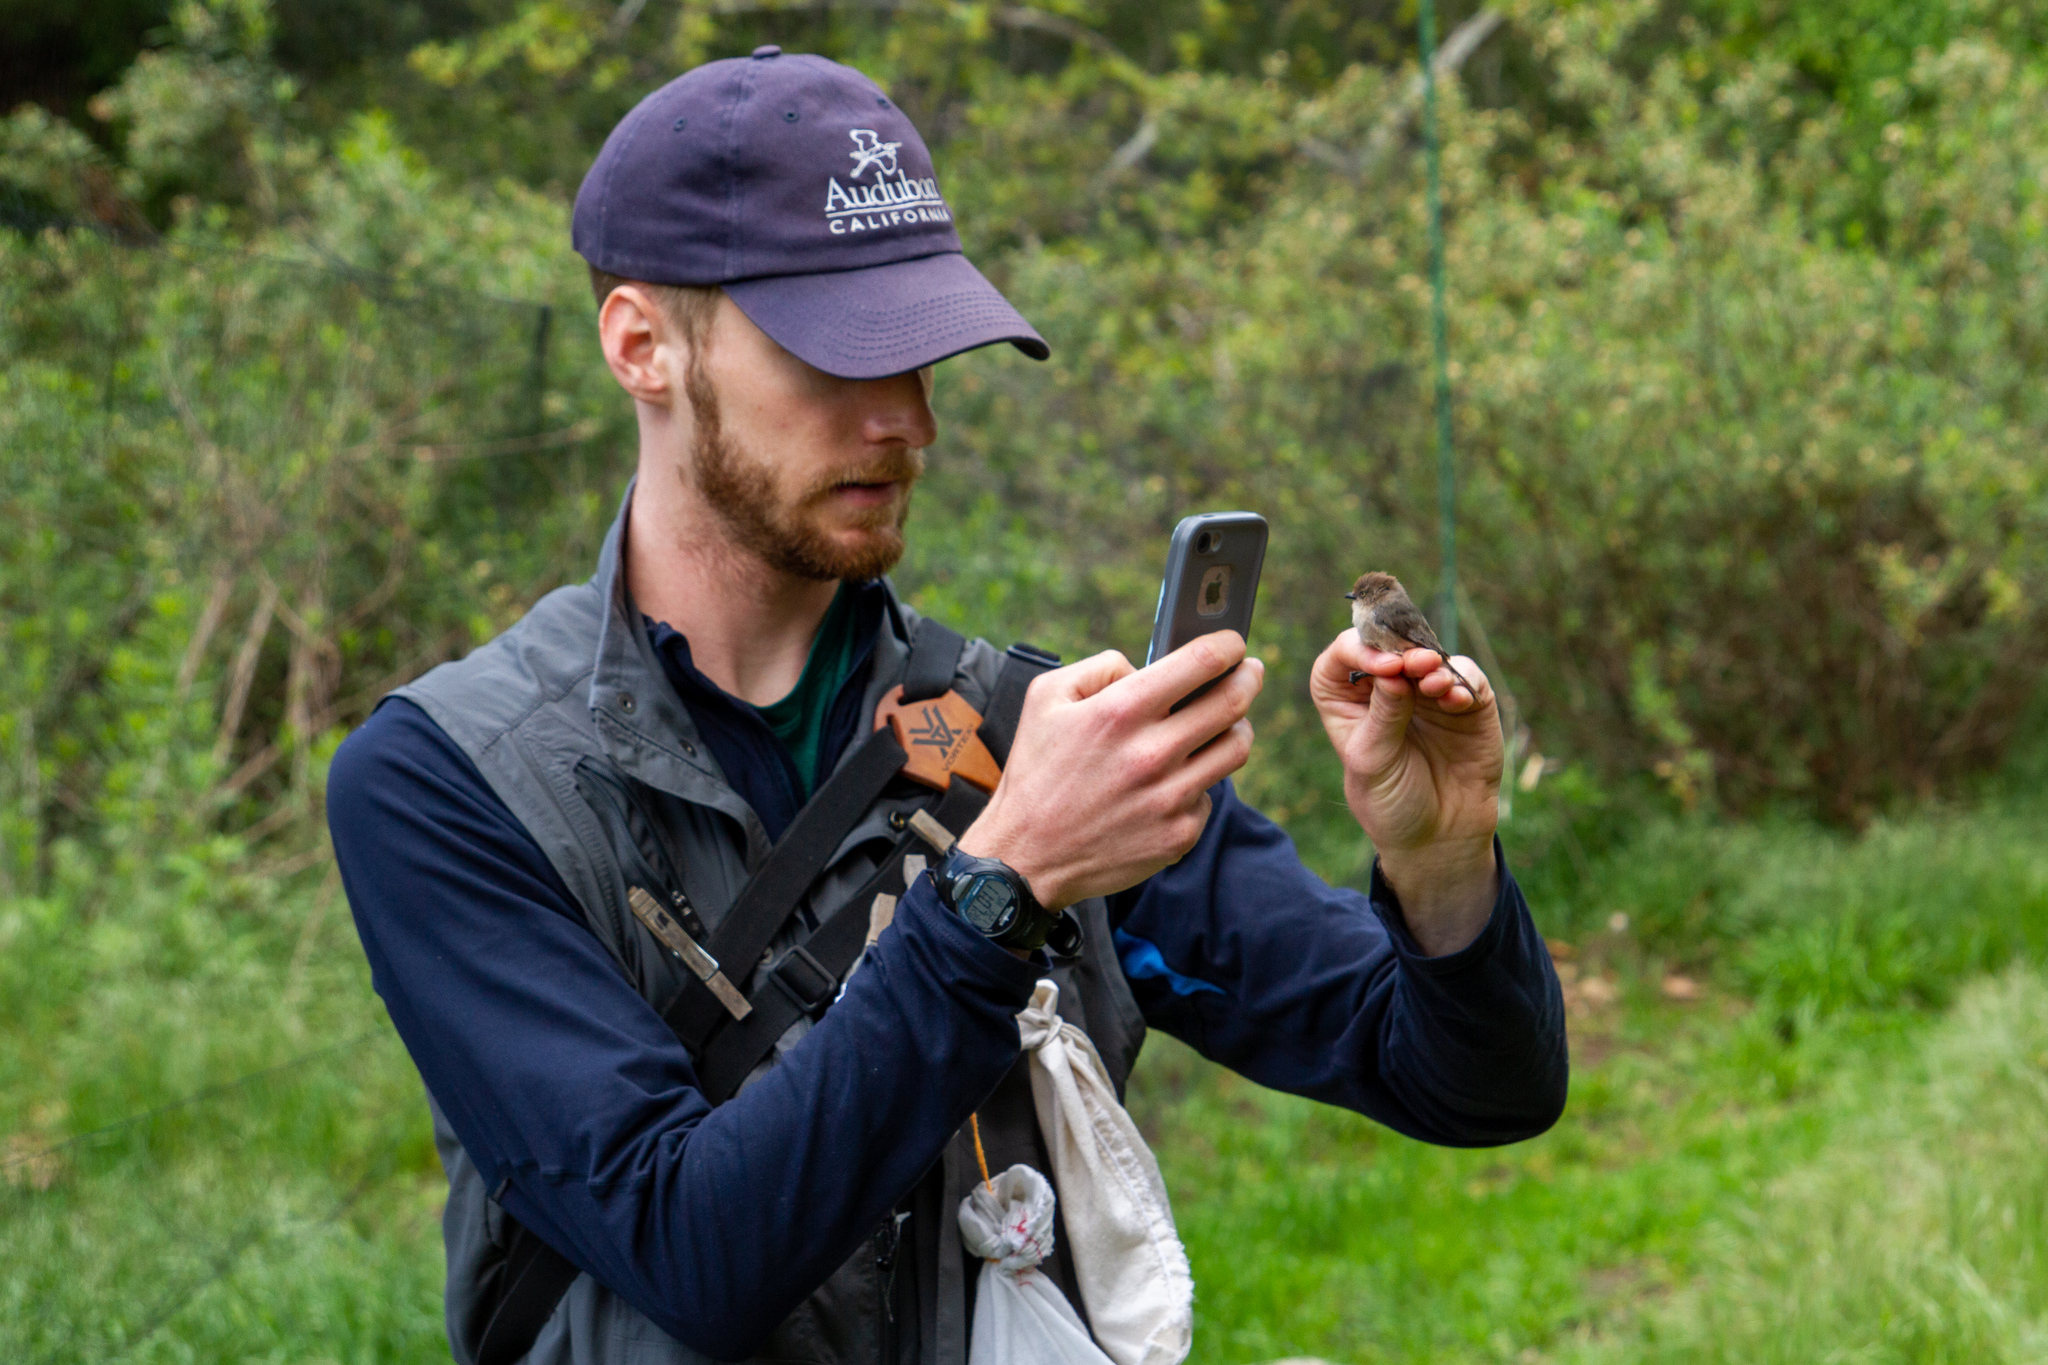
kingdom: Animalia
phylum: Chordata
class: Aves
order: Passeriformes
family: Aegithalidae
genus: Psaltriparus
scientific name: Psaltriparus minimus
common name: American bushtit
